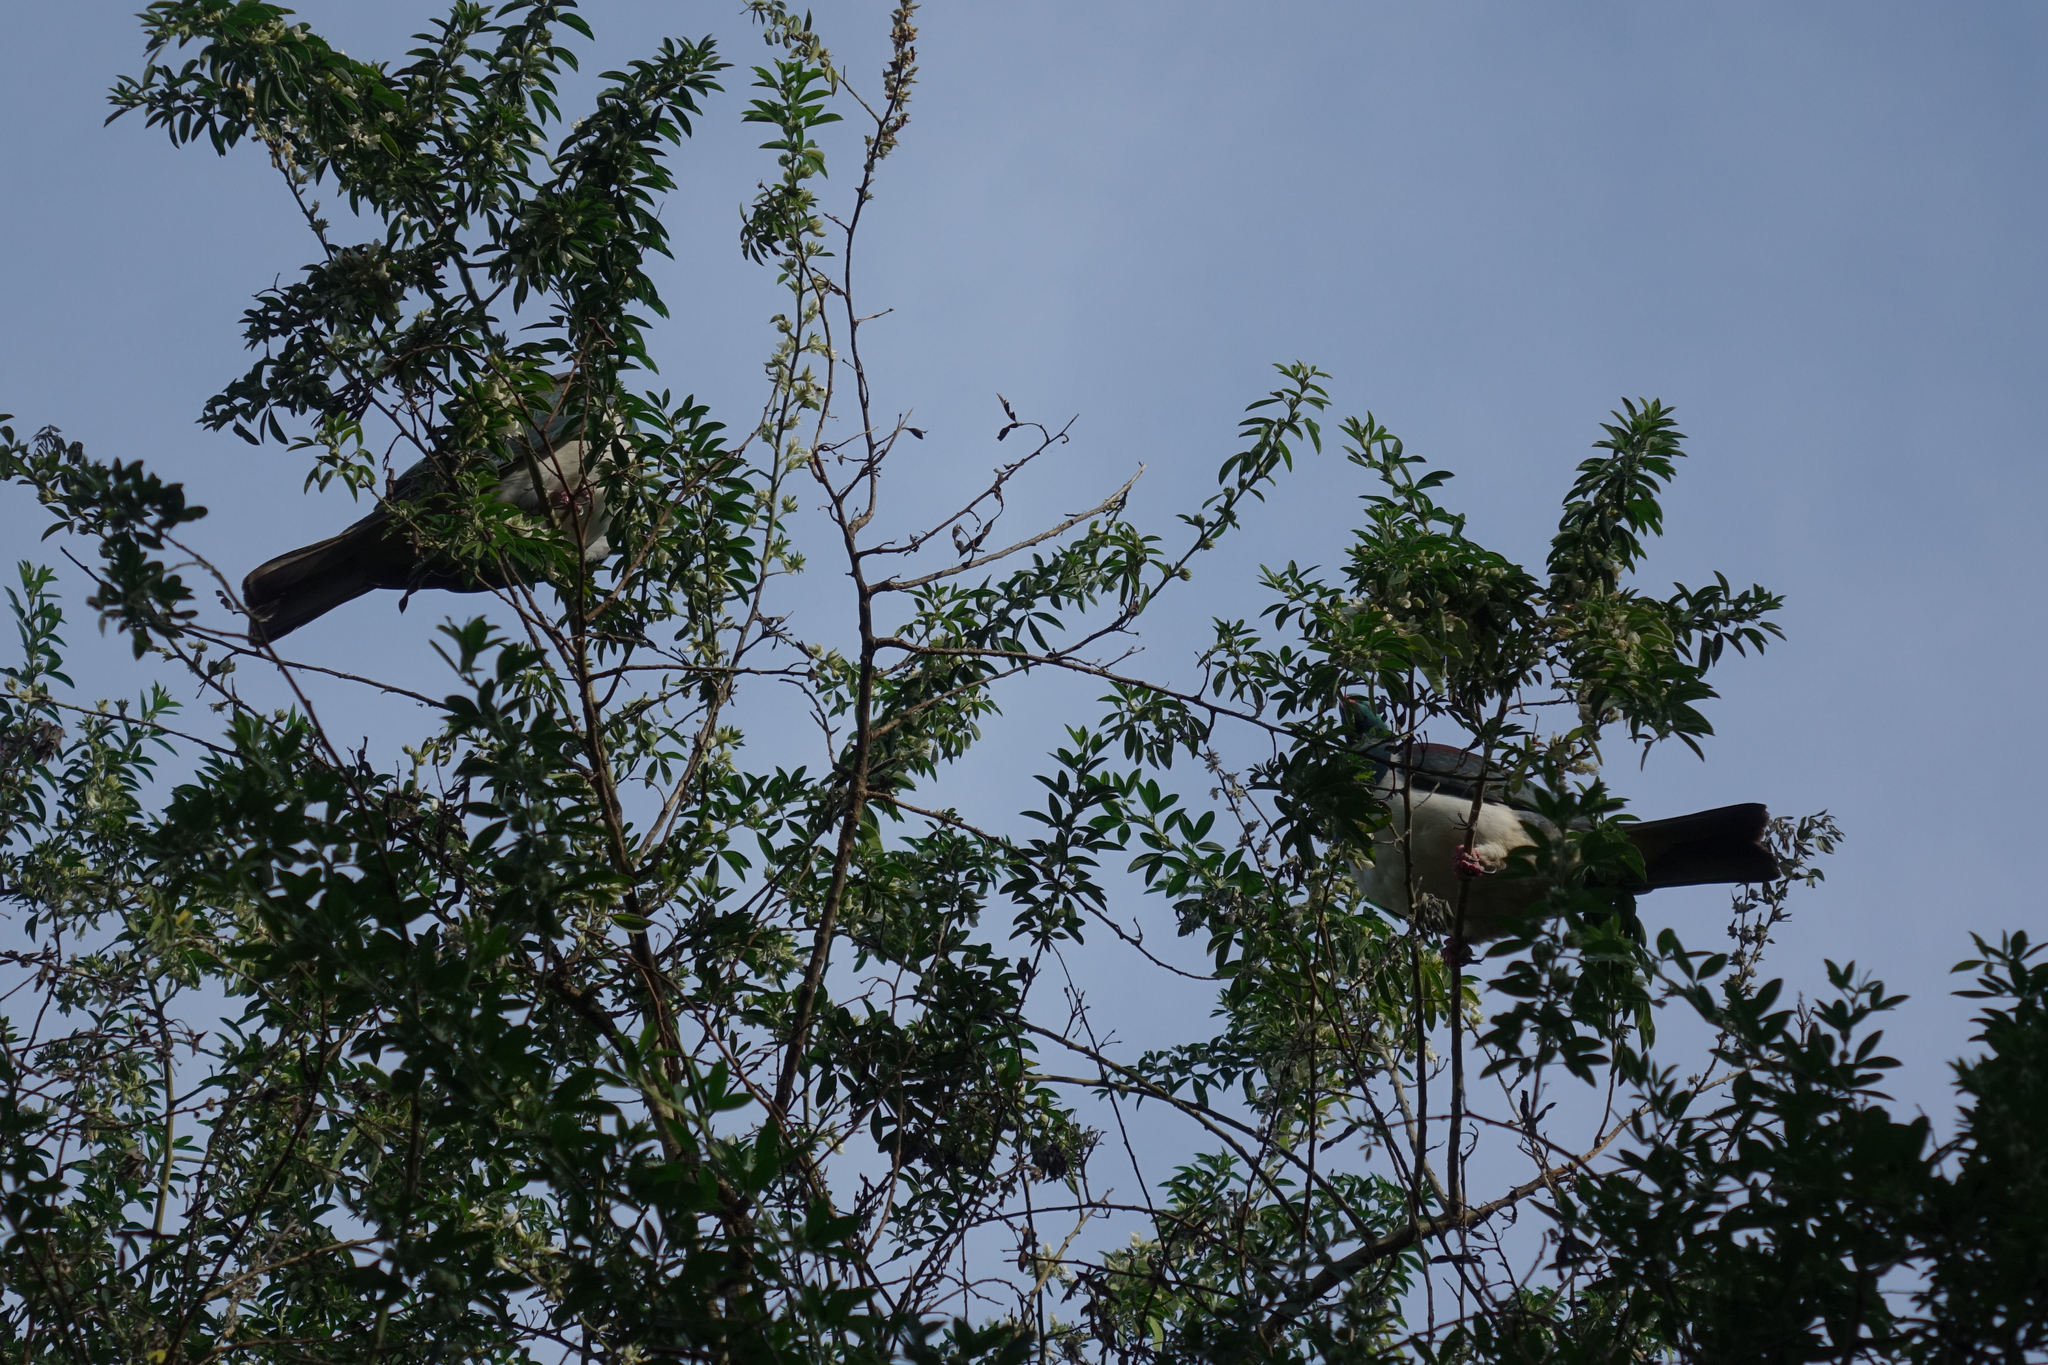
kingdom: Animalia
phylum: Chordata
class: Aves
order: Columbiformes
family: Columbidae
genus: Hemiphaga
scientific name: Hemiphaga novaeseelandiae
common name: New zealand pigeon
